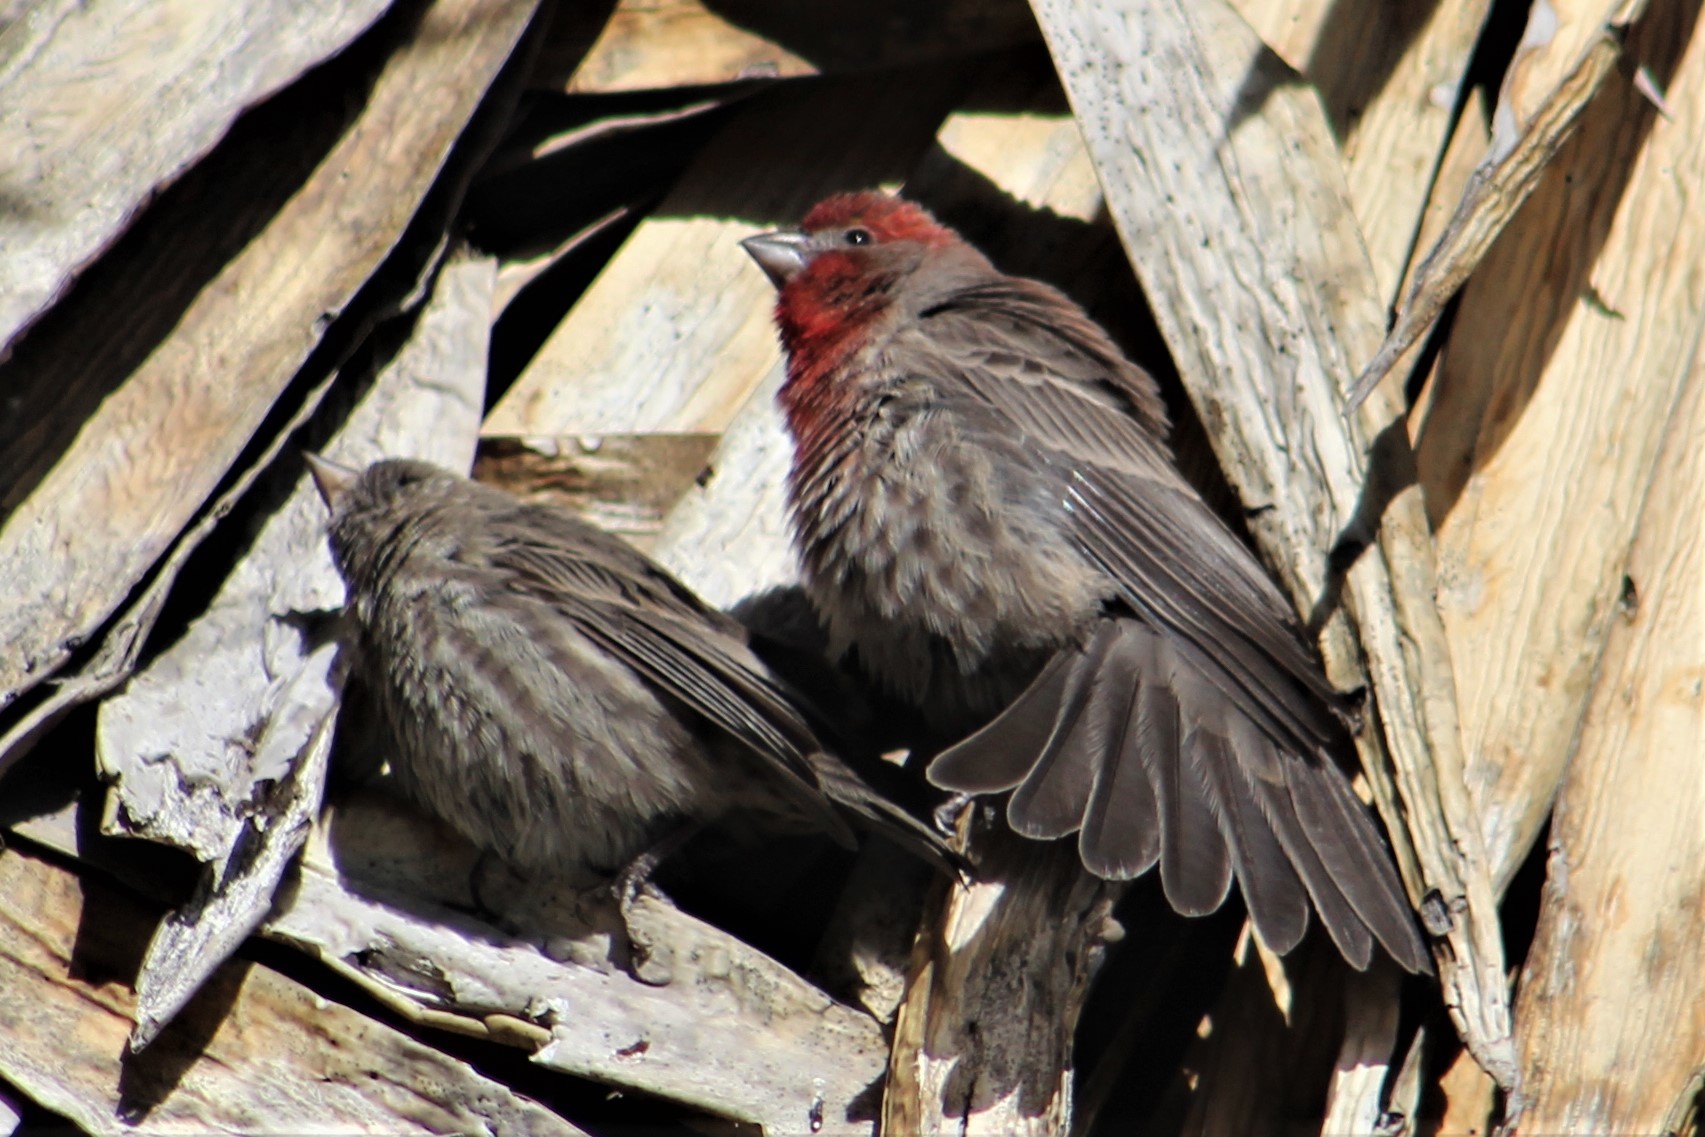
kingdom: Animalia
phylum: Chordata
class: Aves
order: Passeriformes
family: Fringillidae
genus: Haemorhous
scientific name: Haemorhous mexicanus
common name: House finch
